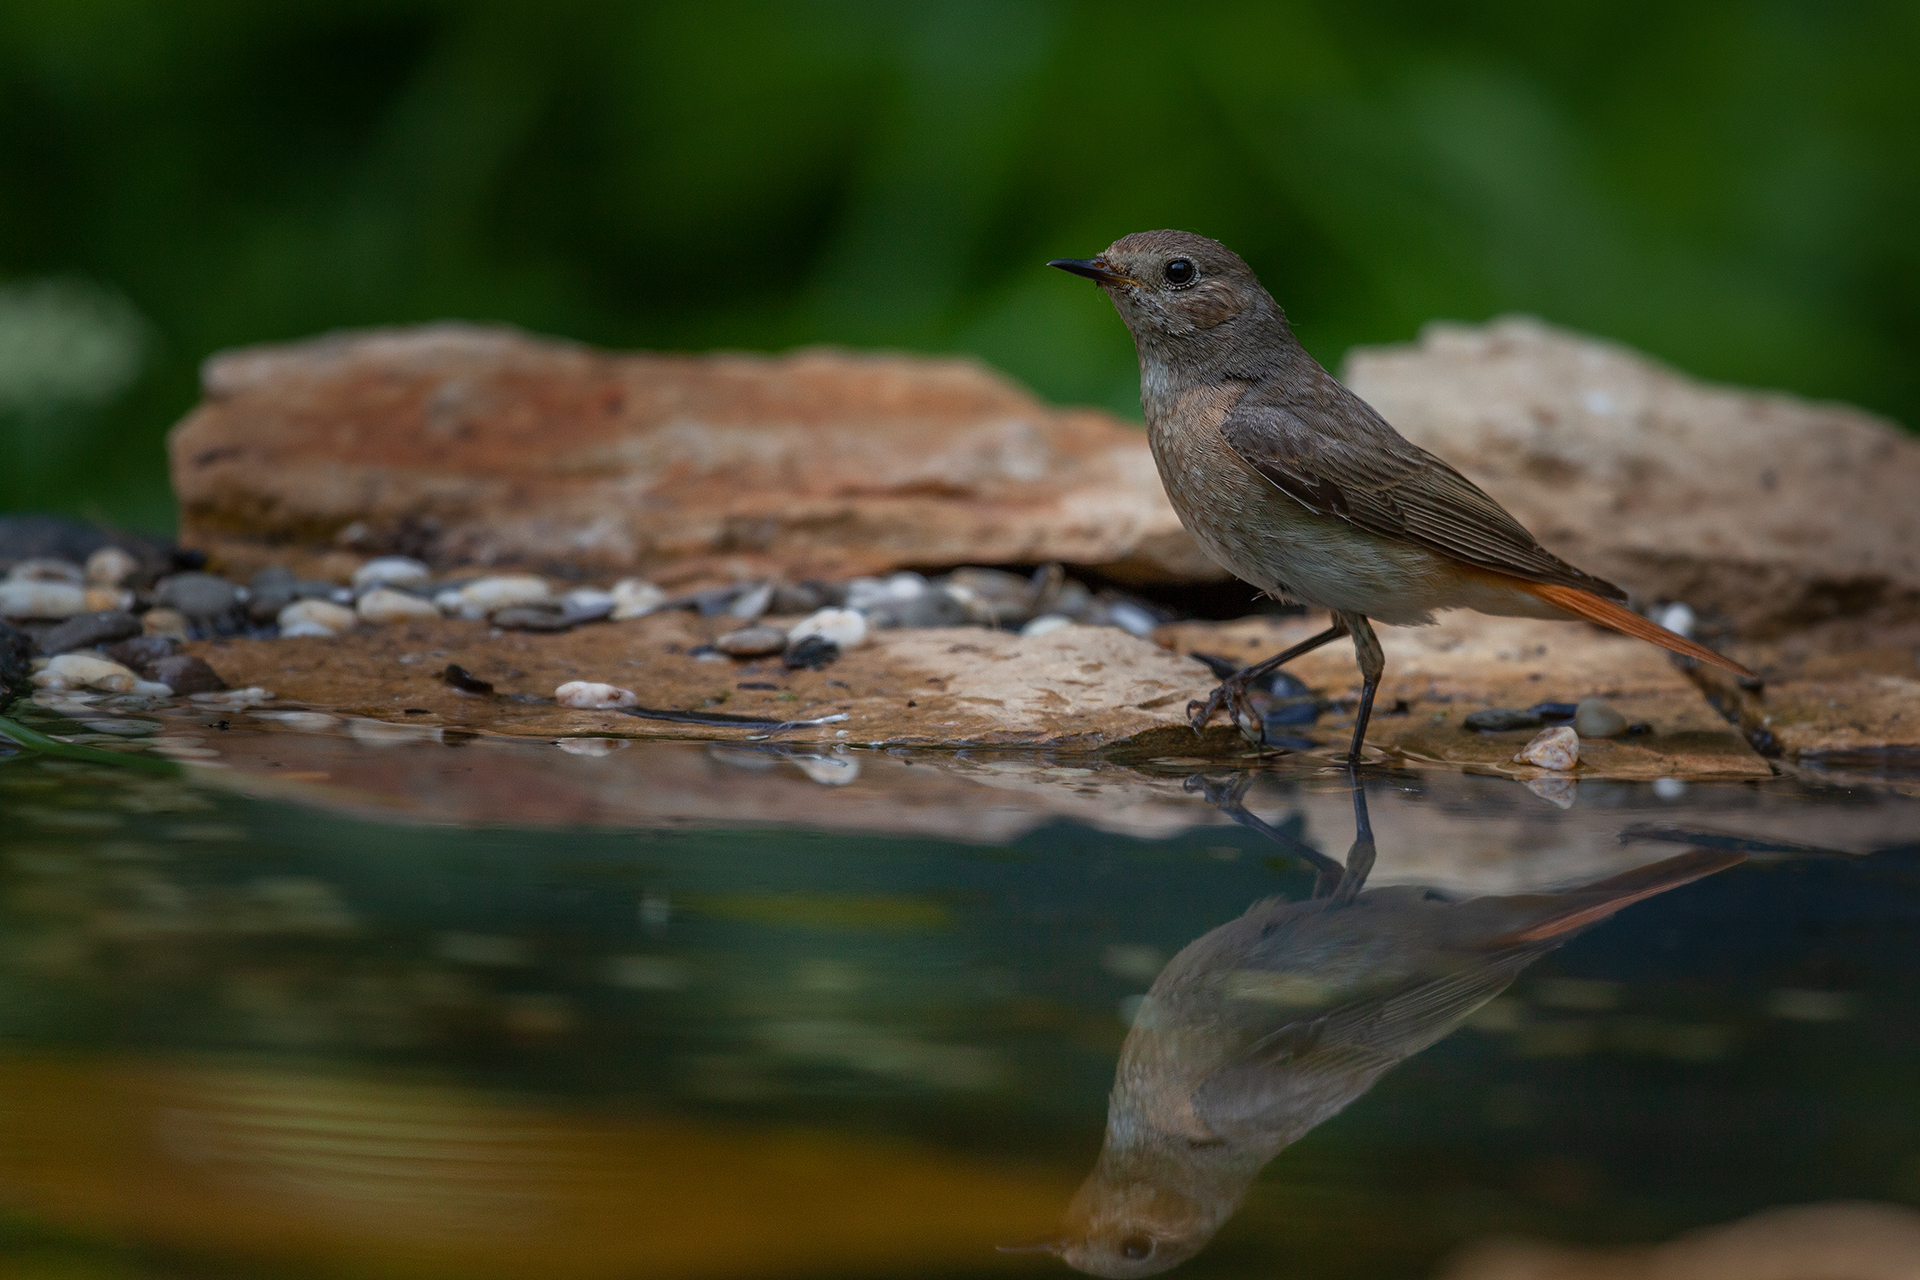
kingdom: Animalia
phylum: Chordata
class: Aves
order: Passeriformes
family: Muscicapidae
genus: Phoenicurus
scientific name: Phoenicurus phoenicurus
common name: Common redstart
